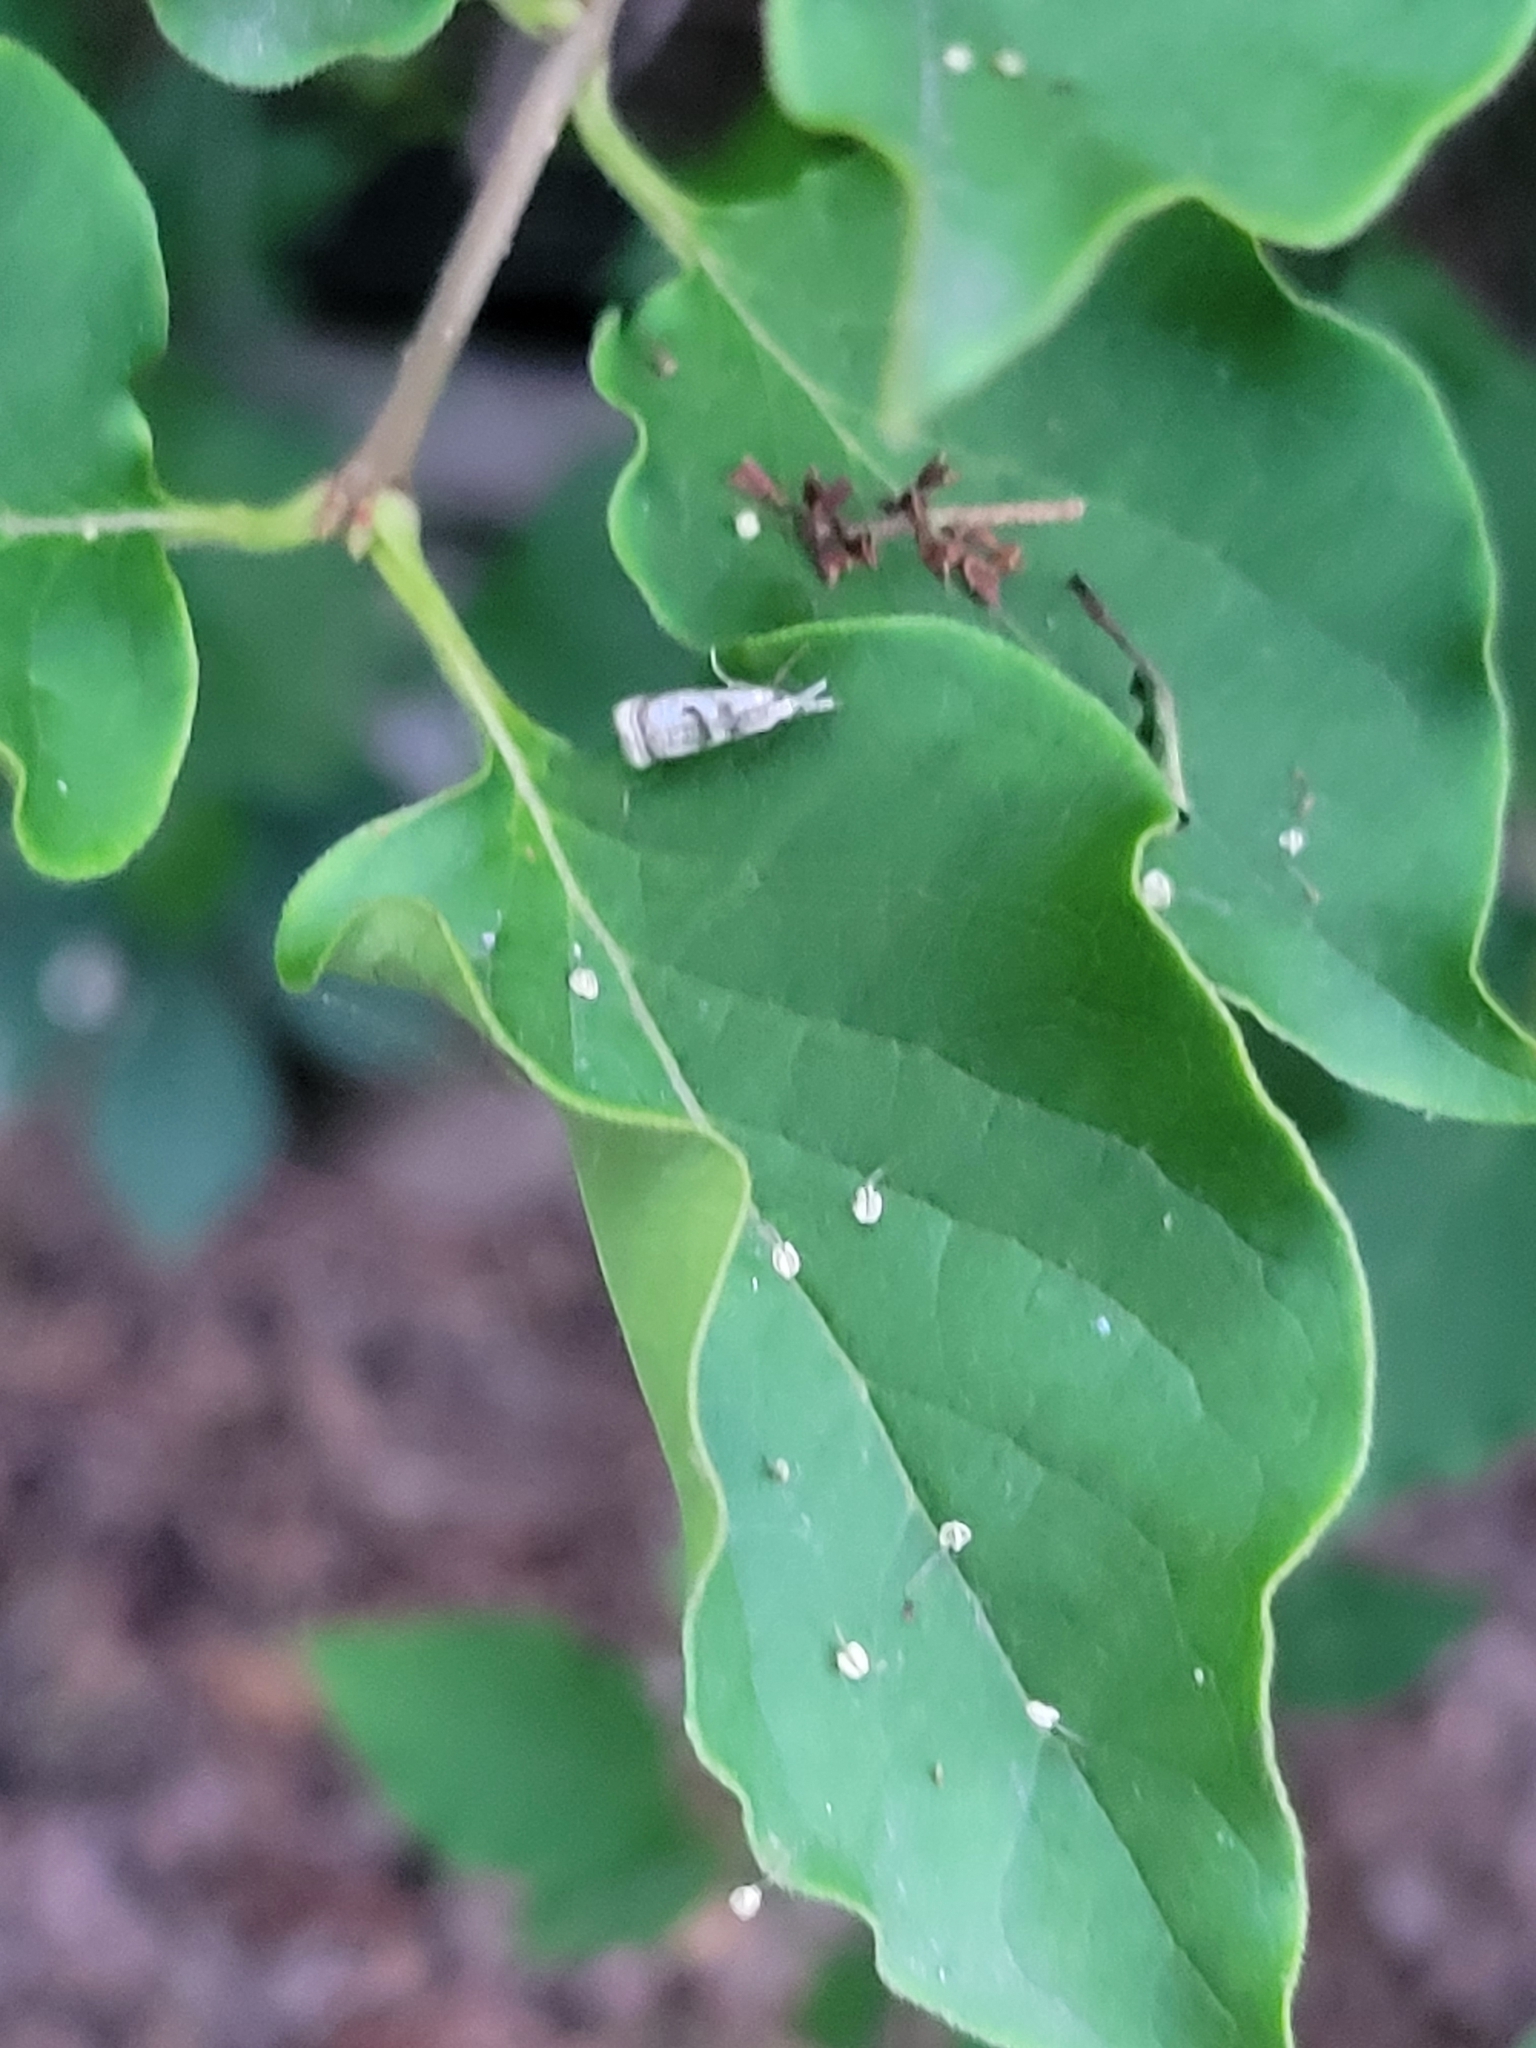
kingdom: Animalia
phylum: Arthropoda
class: Insecta
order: Lepidoptera
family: Crambidae
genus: Microcrambus
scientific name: Microcrambus elegans
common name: Elegant grass-veneer
